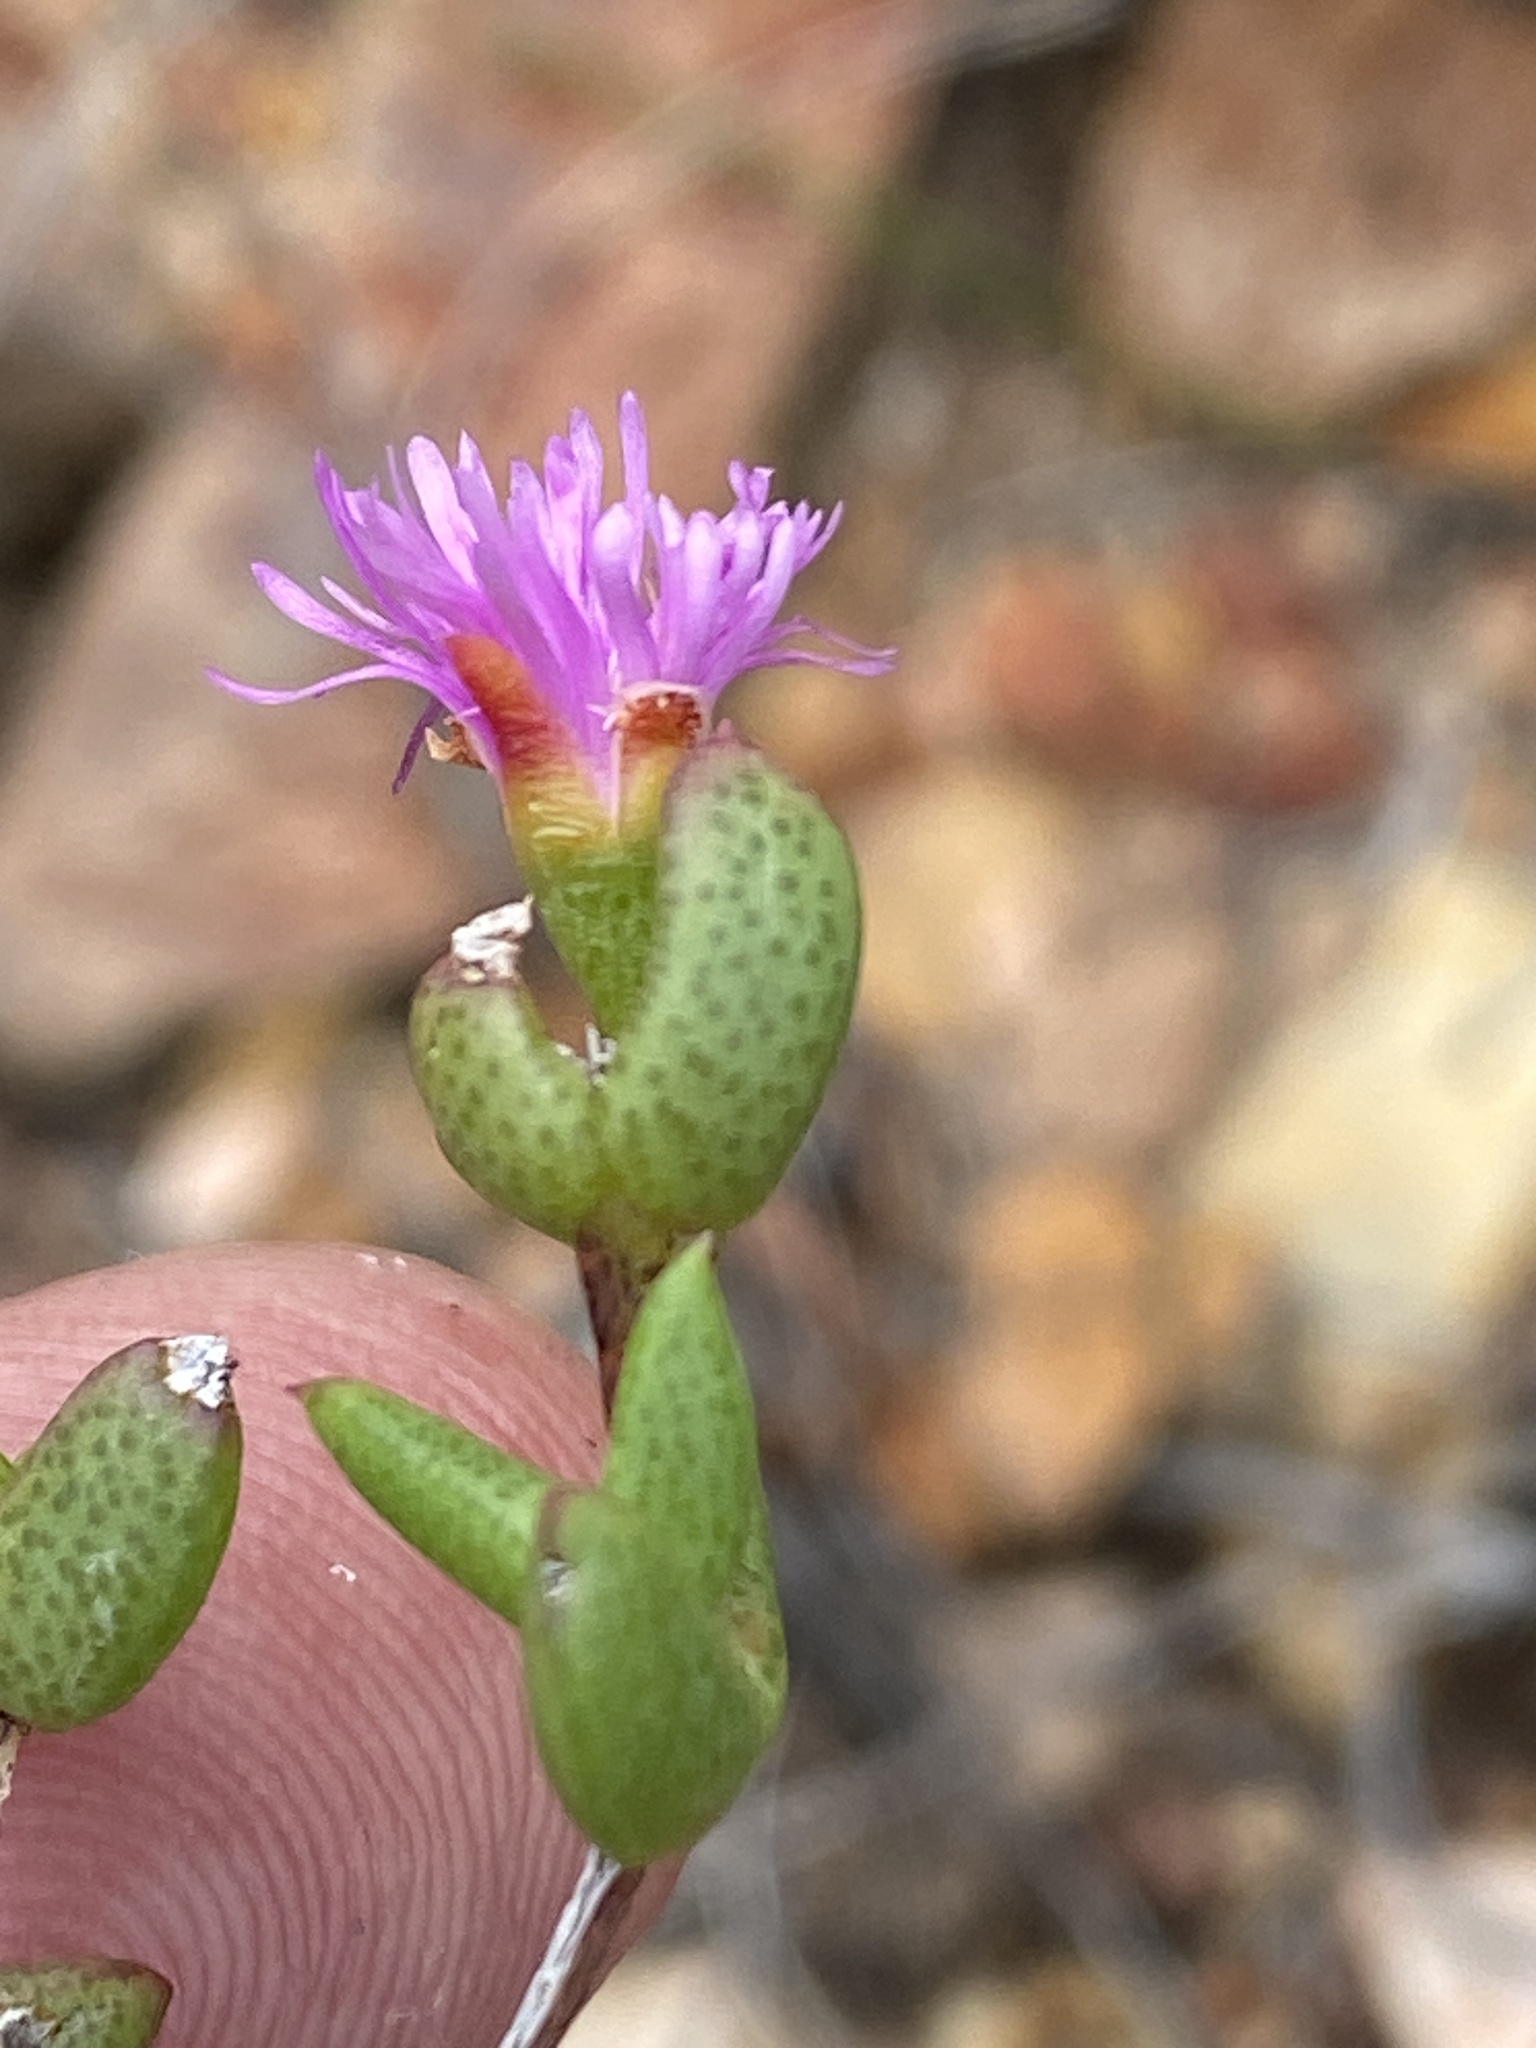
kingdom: Plantae
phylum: Tracheophyta
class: Magnoliopsida
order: Caryophyllales
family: Aizoaceae
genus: Ruschia
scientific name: Ruschia virgata
